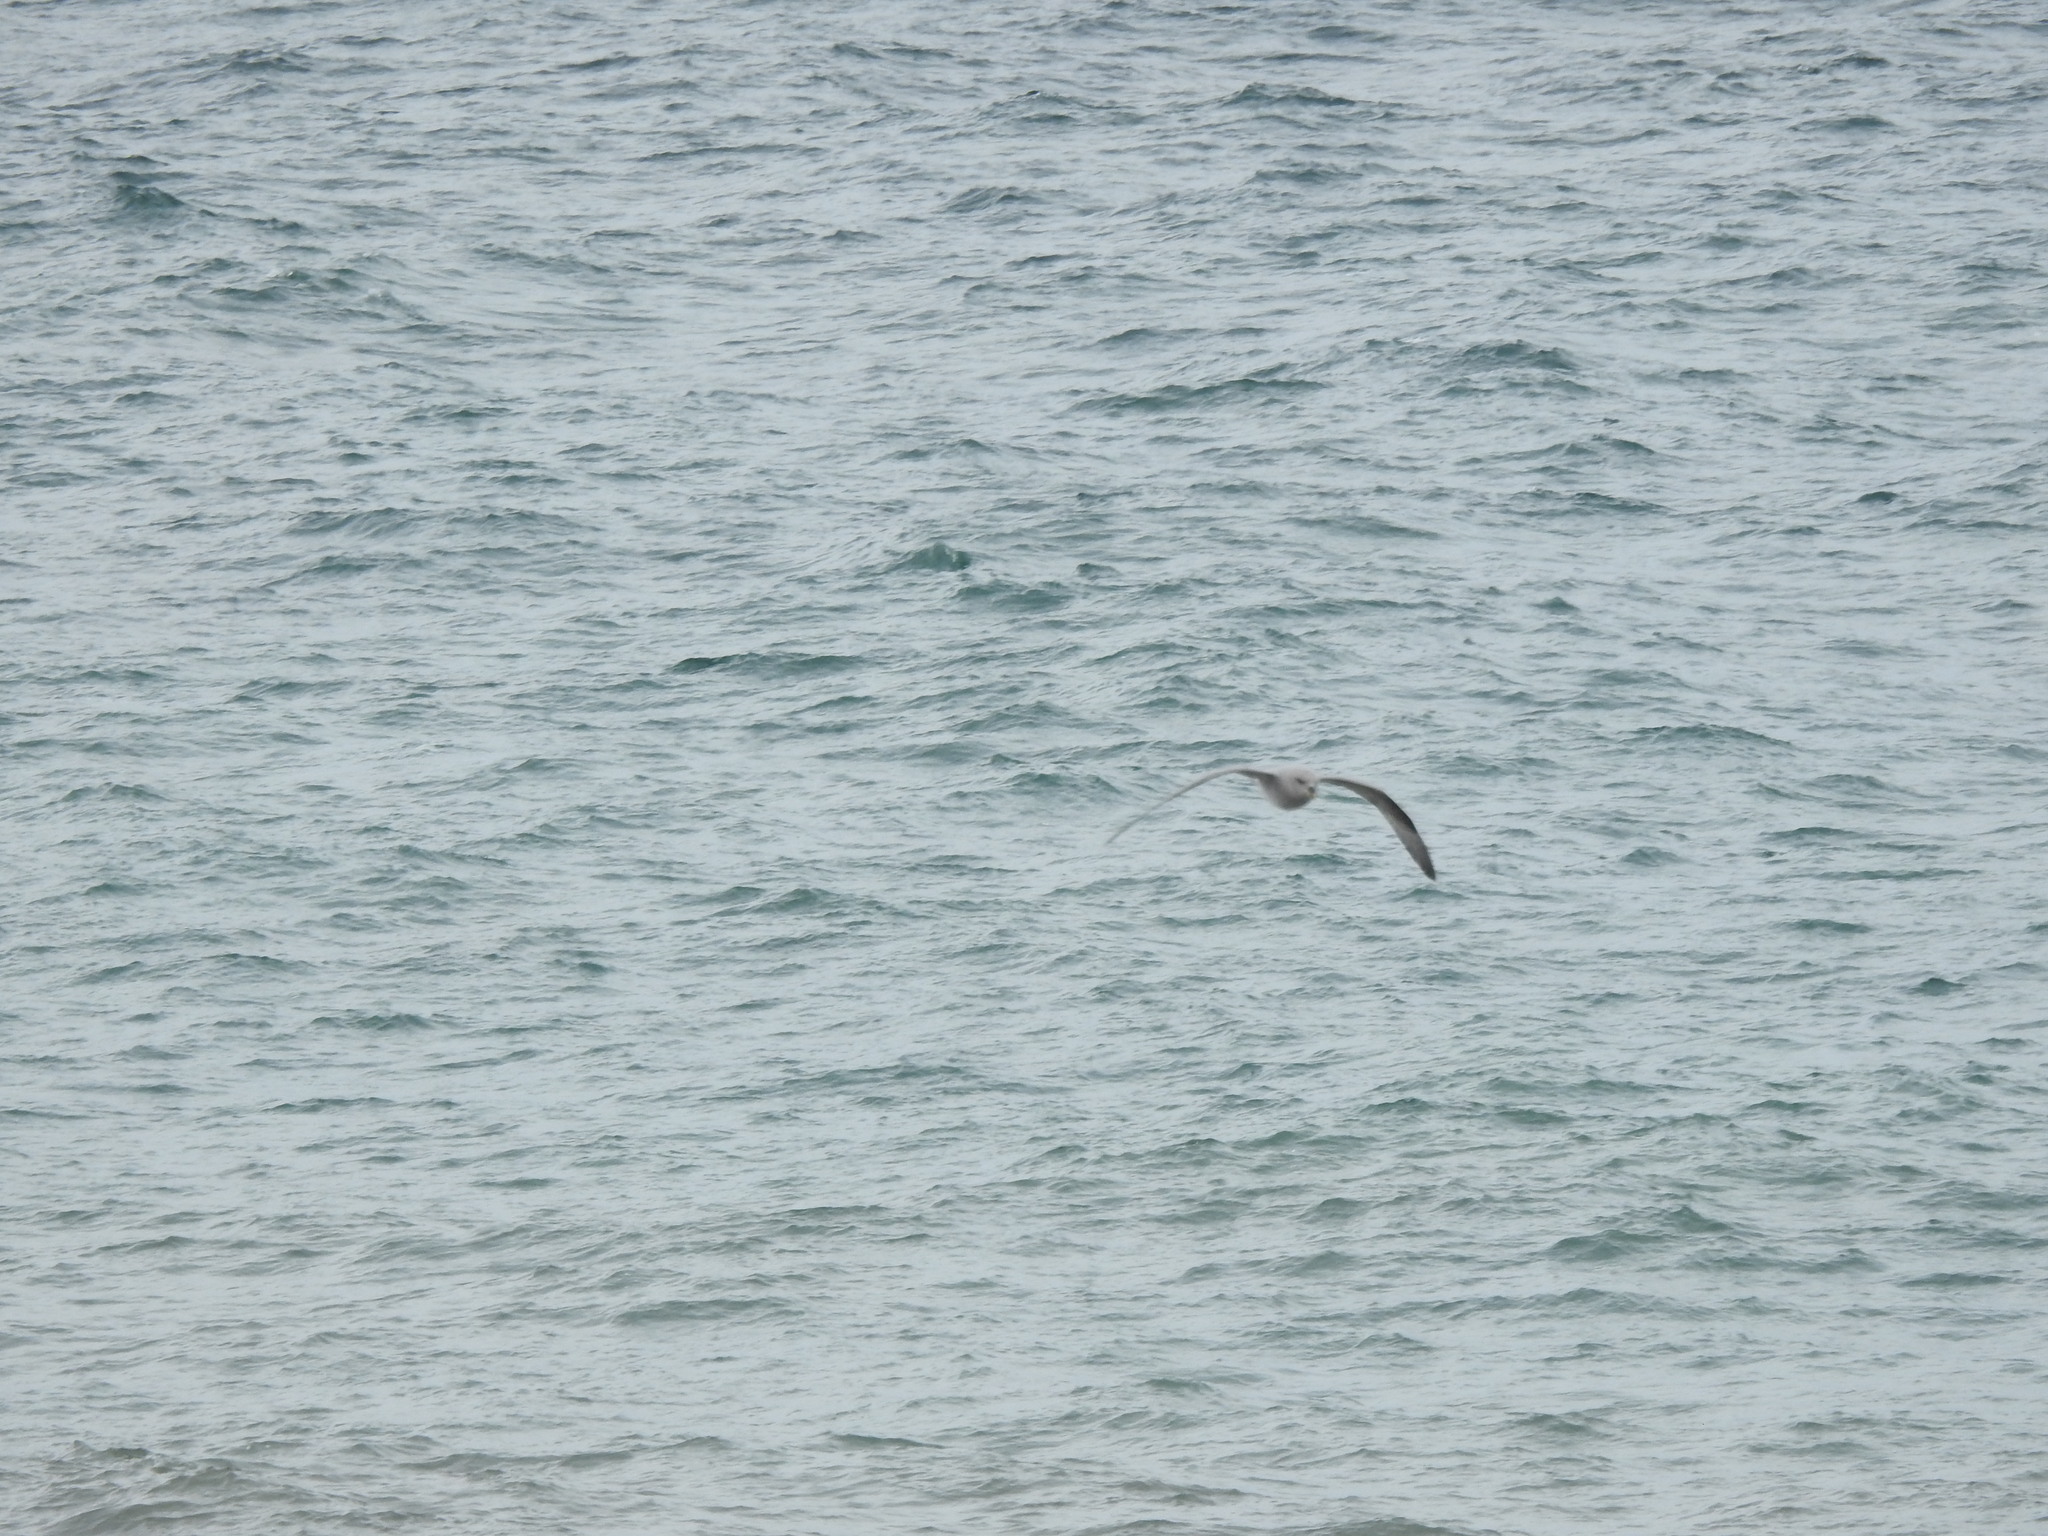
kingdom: Animalia
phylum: Chordata
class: Aves
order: Procellariiformes
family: Procellariidae
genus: Fulmarus
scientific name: Fulmarus glacialis
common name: Northern fulmar
